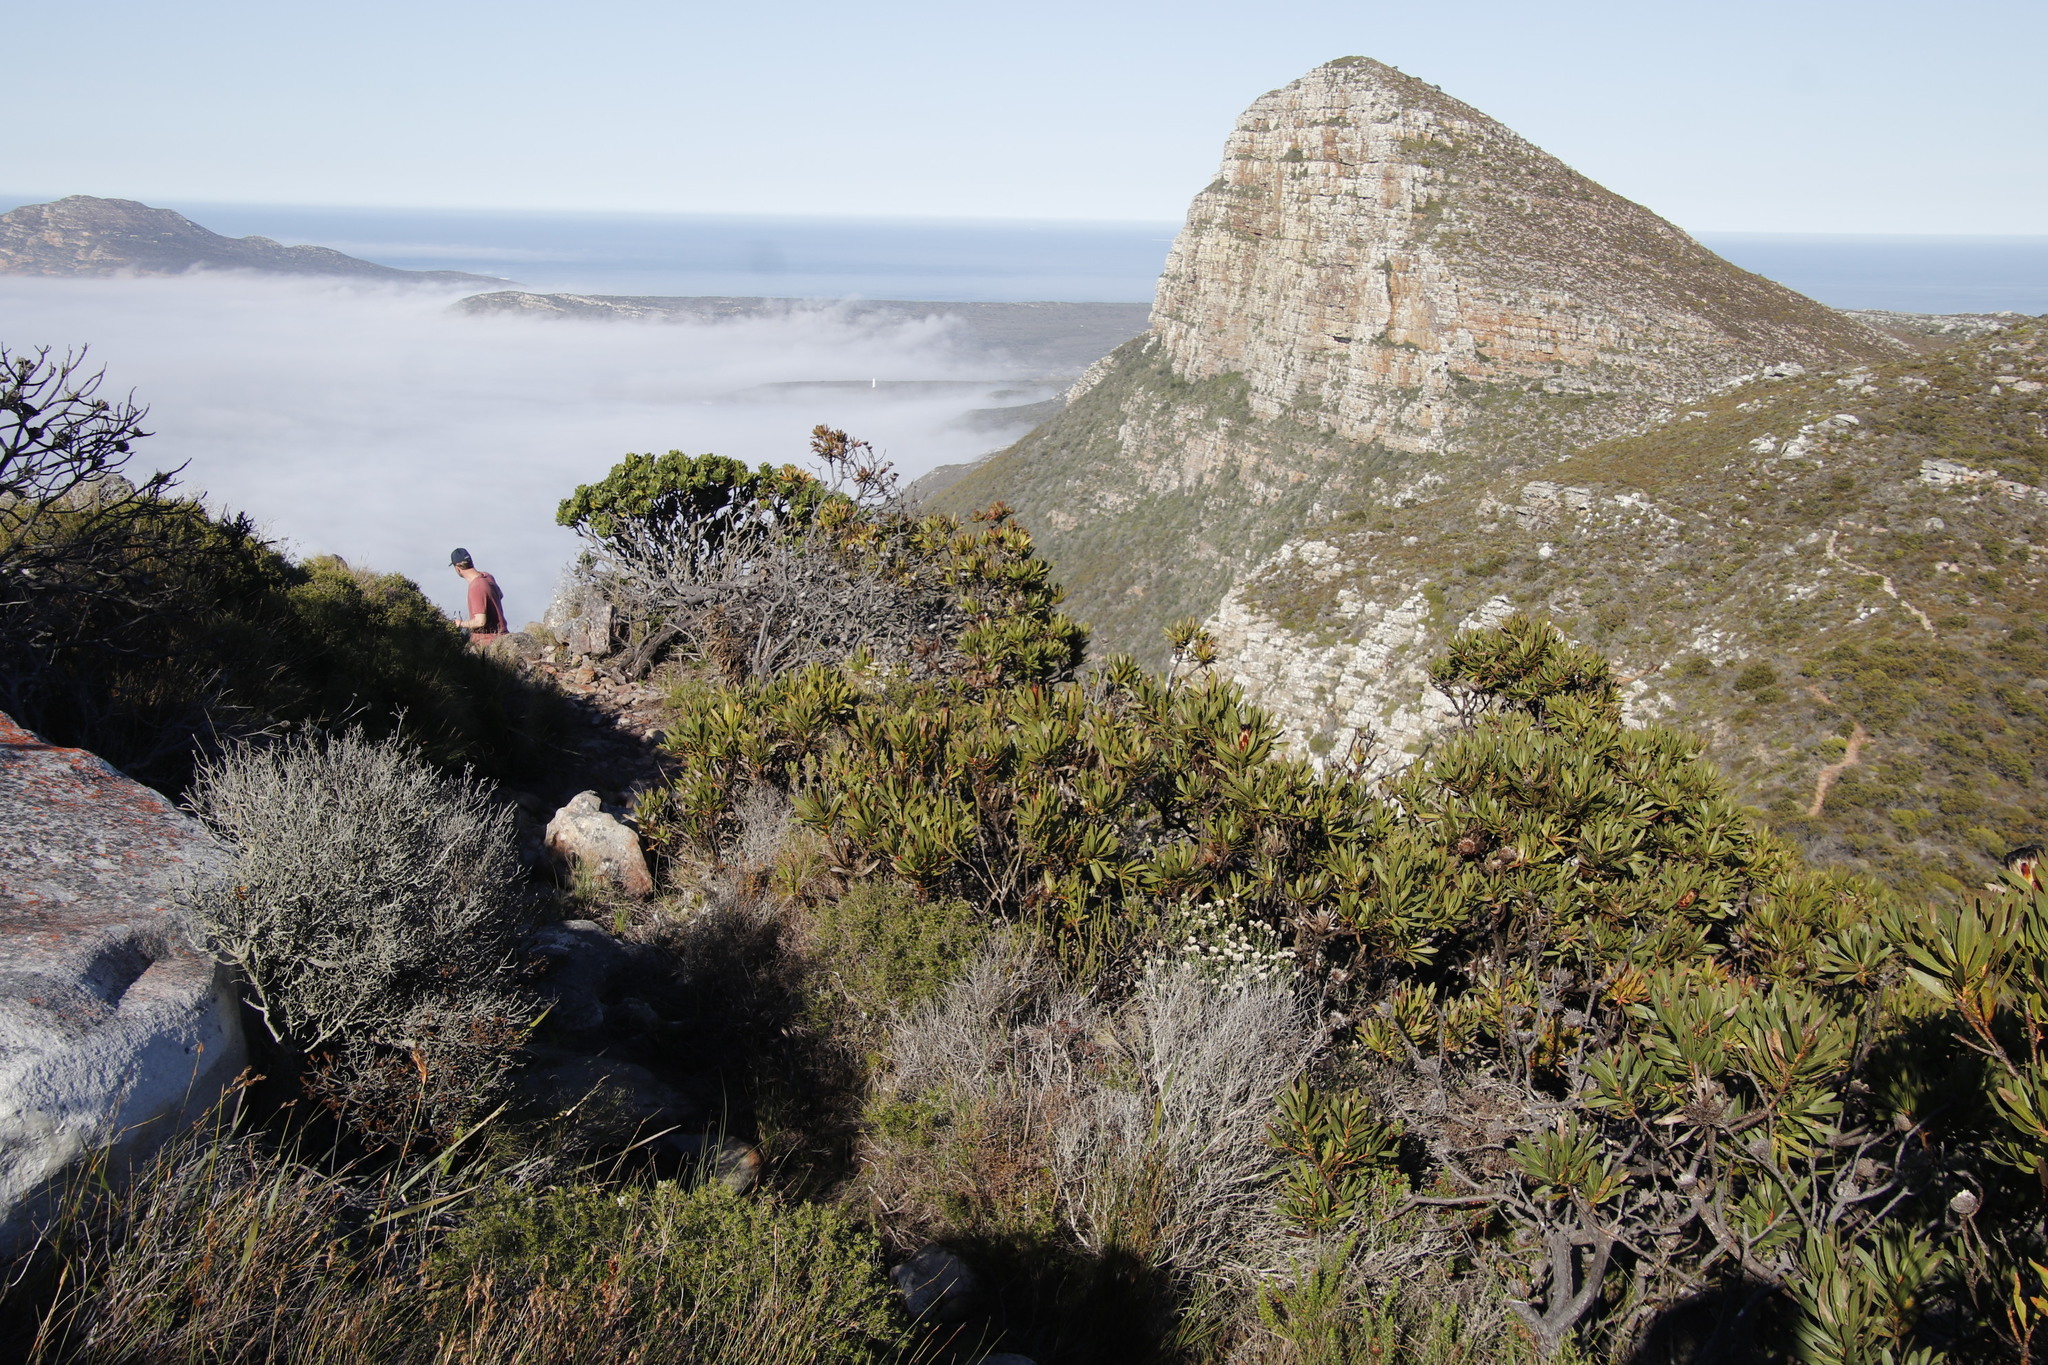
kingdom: Plantae
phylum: Tracheophyta
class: Magnoliopsida
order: Proteales
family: Proteaceae
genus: Protea
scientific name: Protea lepidocarpodendron
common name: Black-bearded protea
